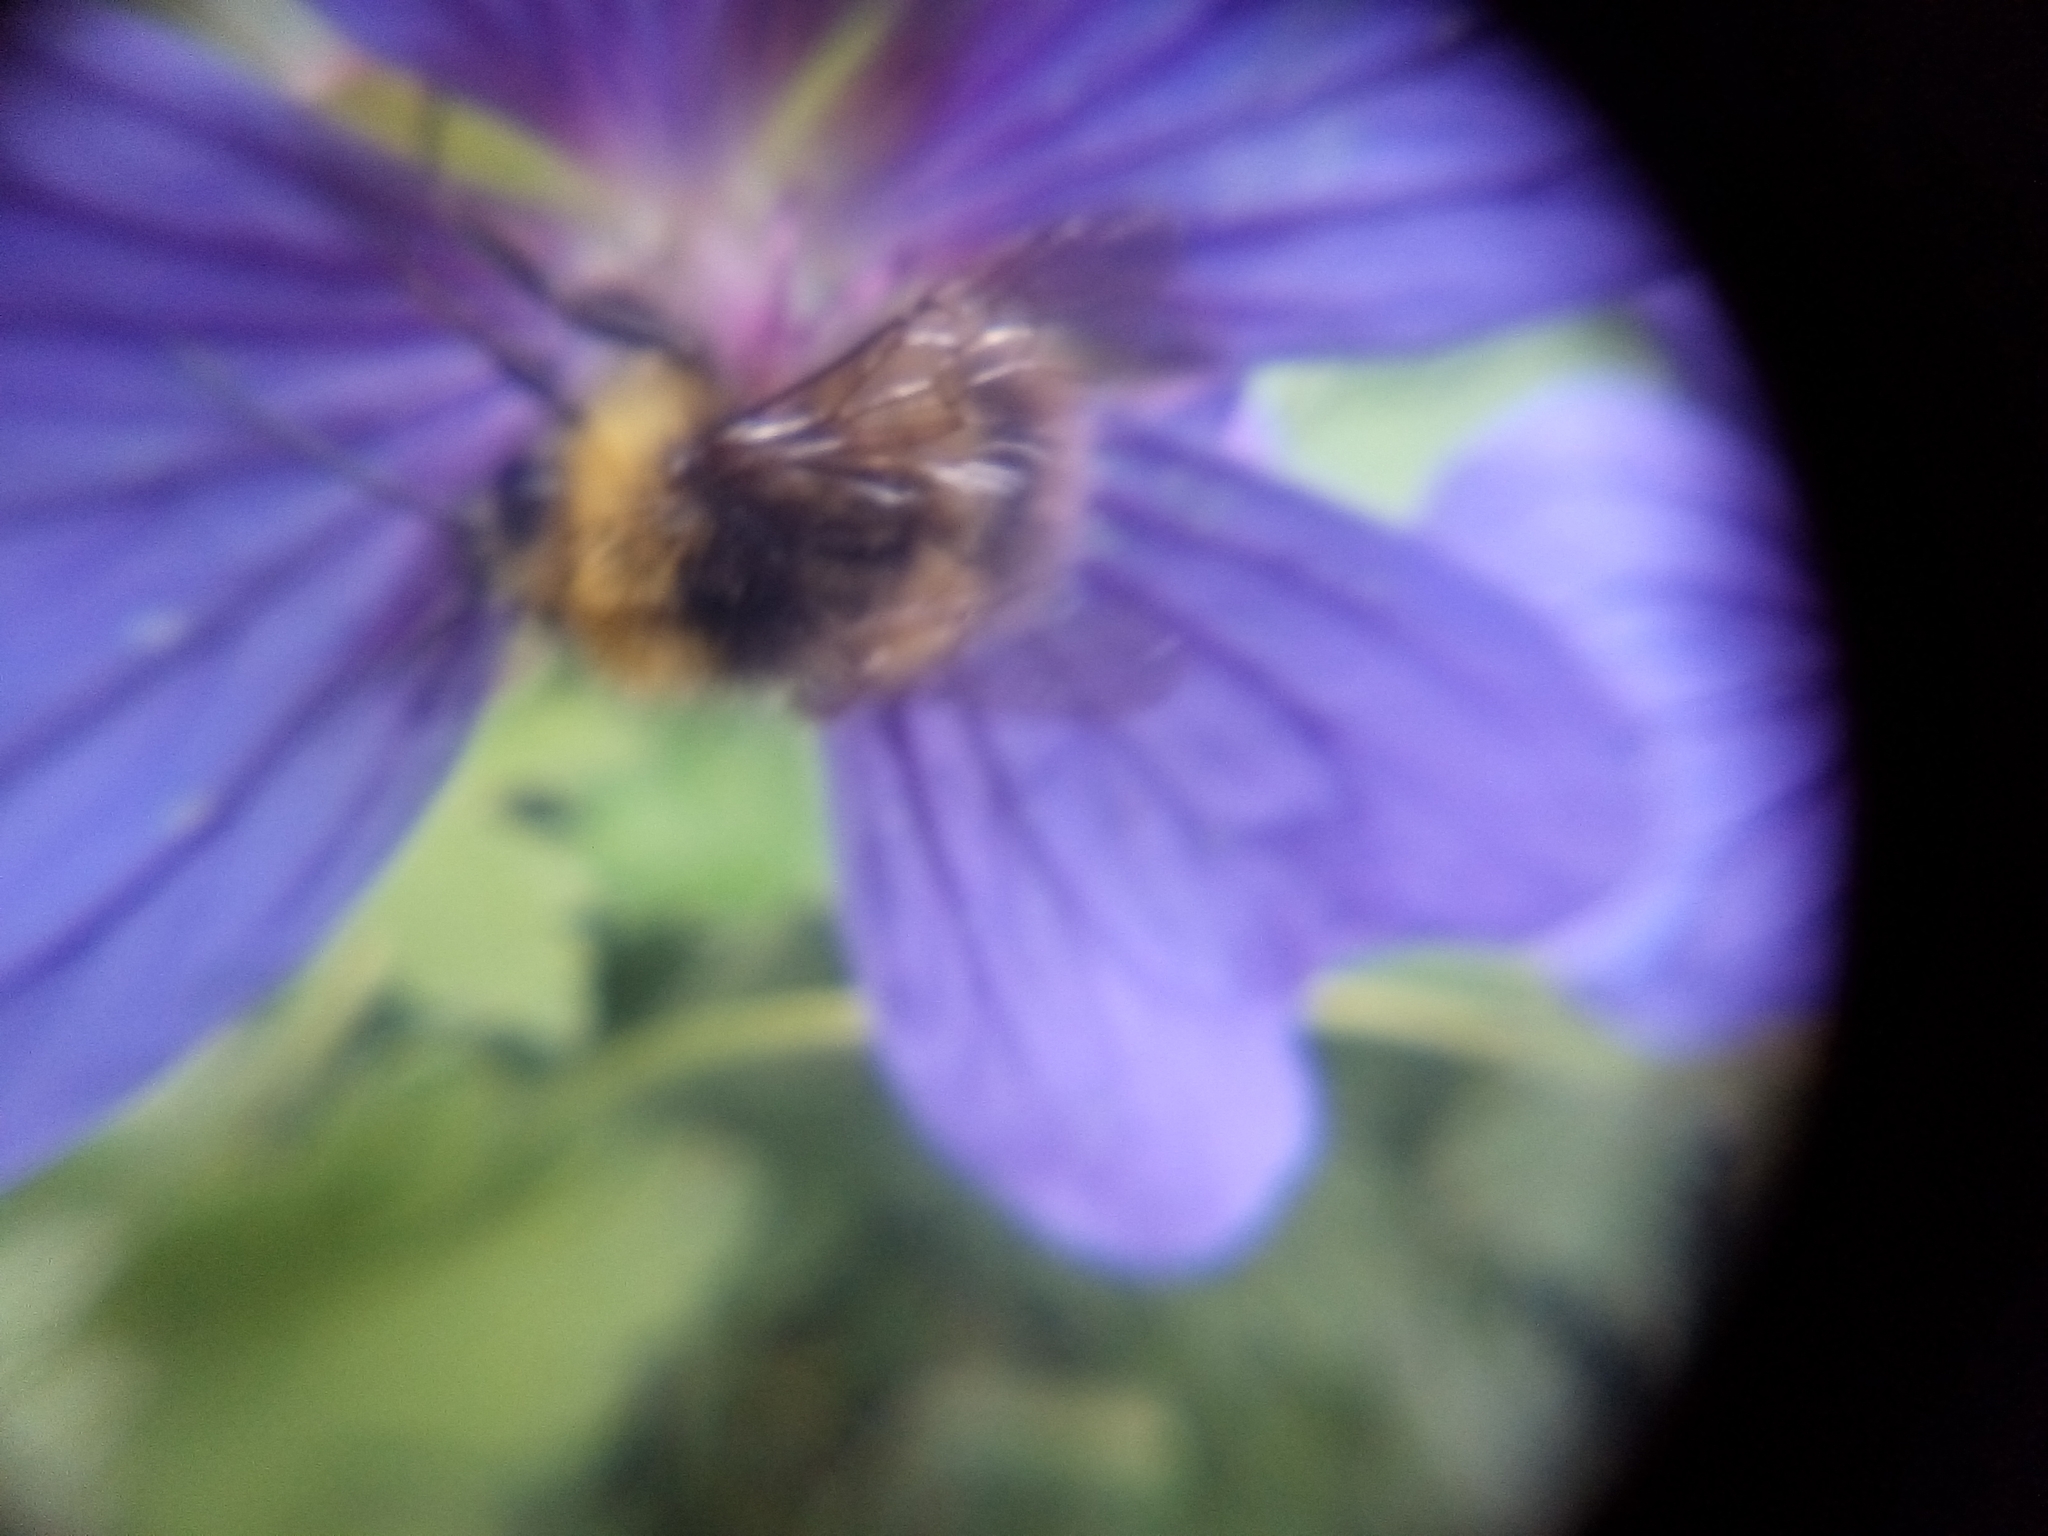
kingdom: Animalia
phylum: Arthropoda
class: Insecta
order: Hymenoptera
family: Apidae
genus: Bombus
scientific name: Bombus pratorum
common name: Early humble-bee
